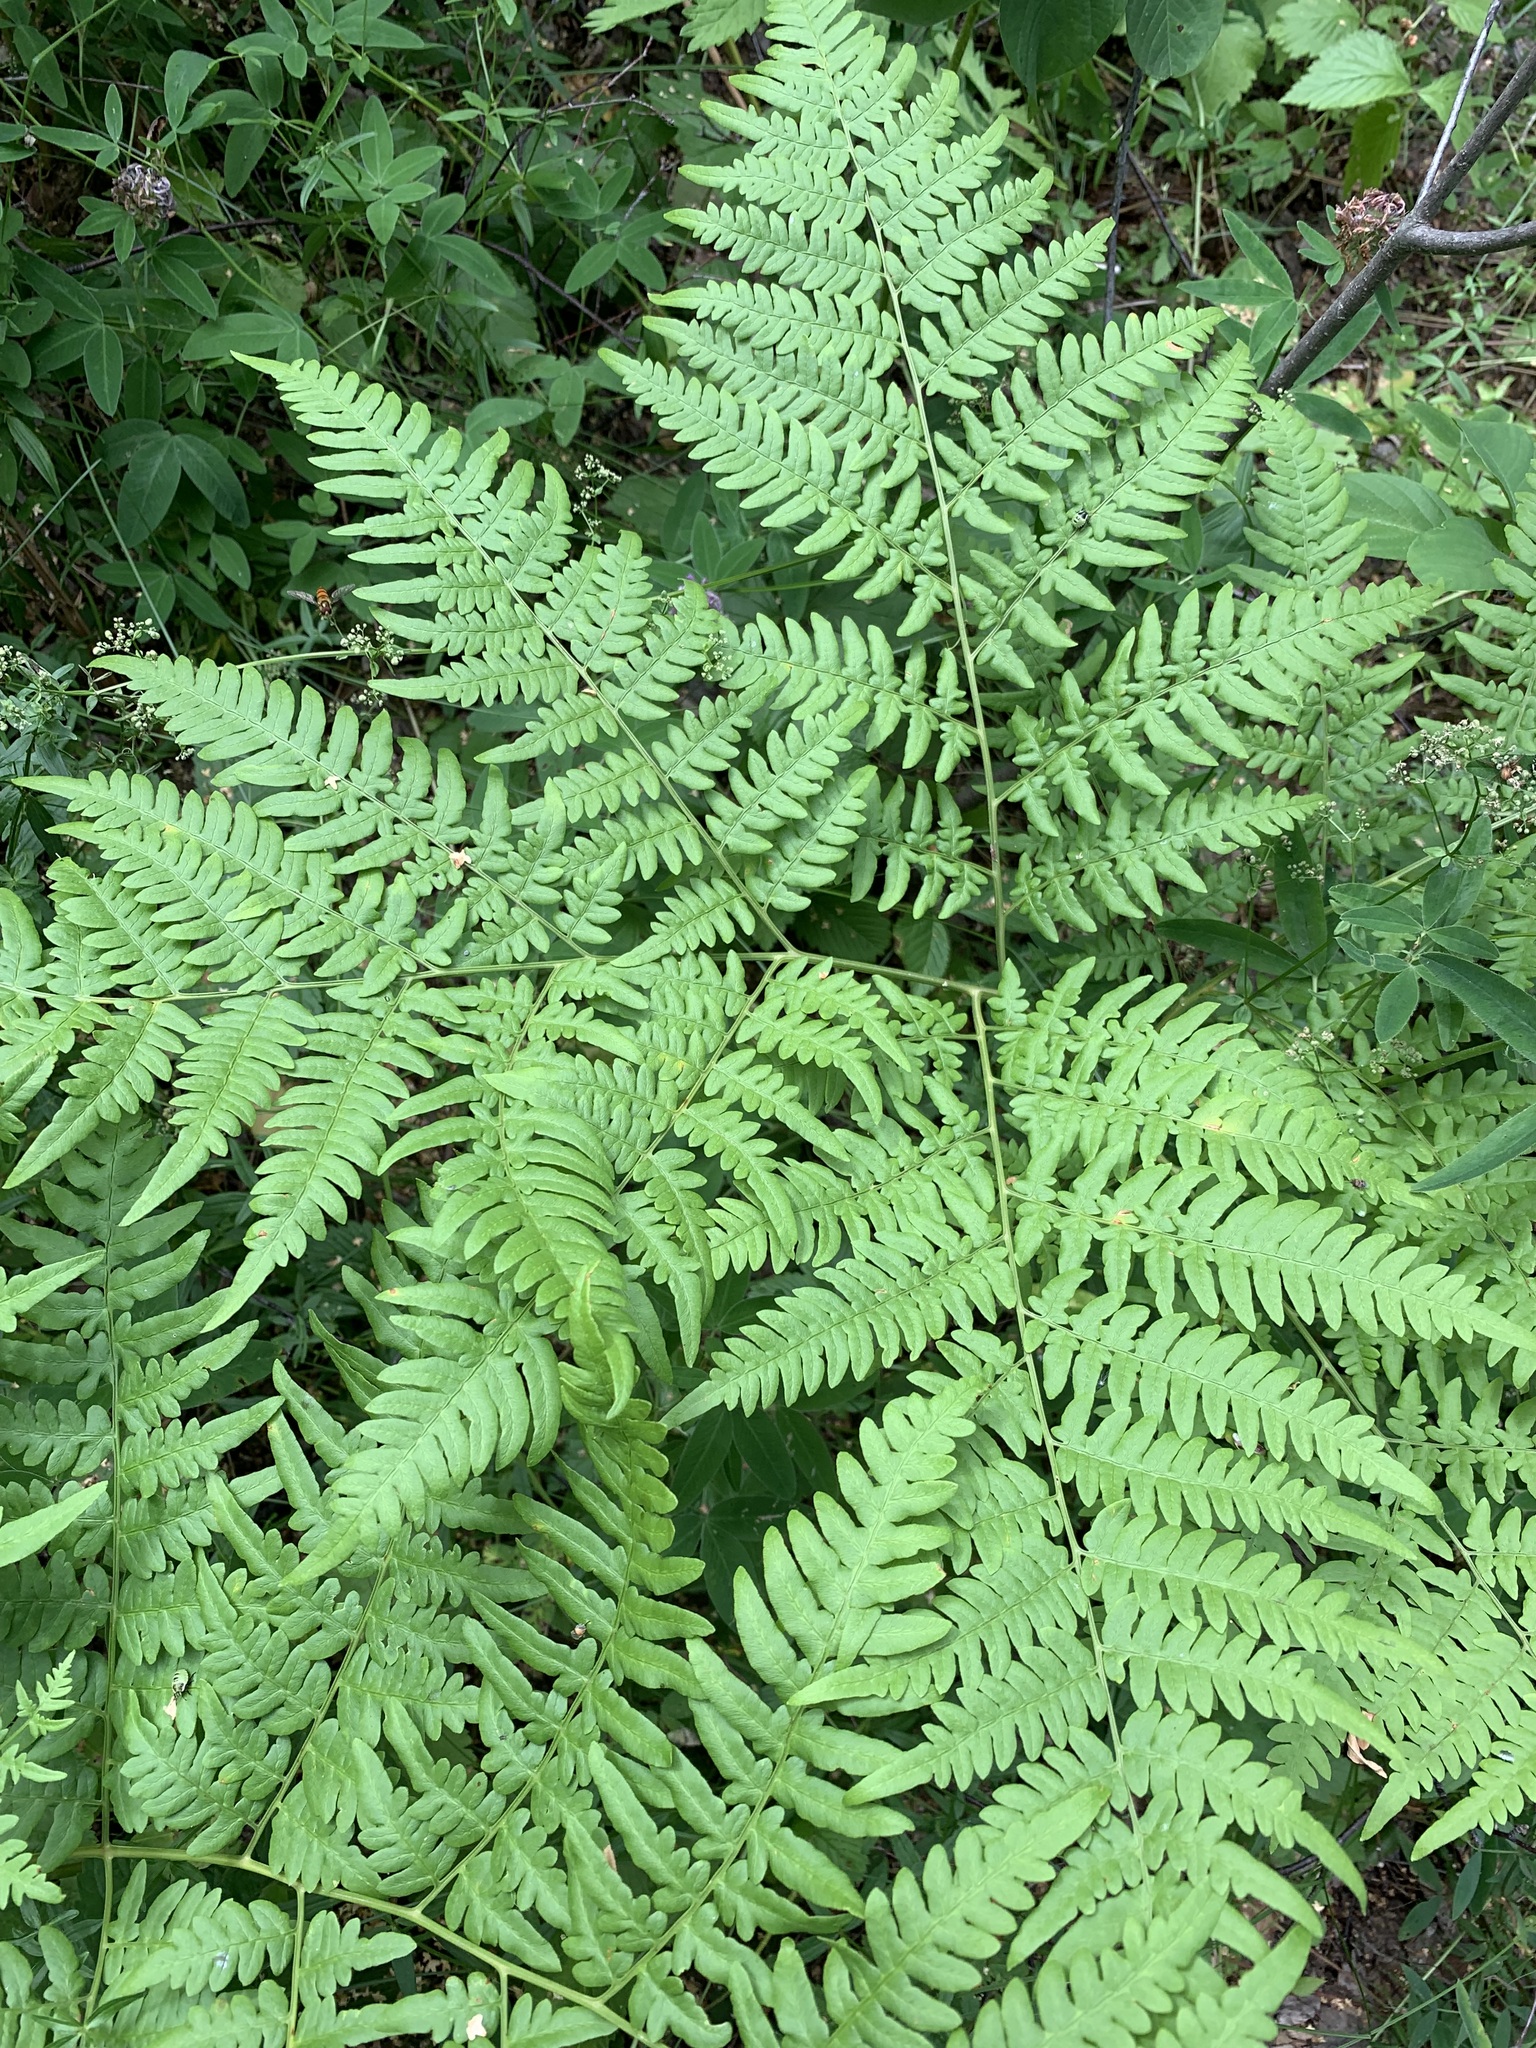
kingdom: Plantae
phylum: Tracheophyta
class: Polypodiopsida
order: Polypodiales
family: Dennstaedtiaceae
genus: Pteridium
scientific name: Pteridium aquilinum
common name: Bracken
